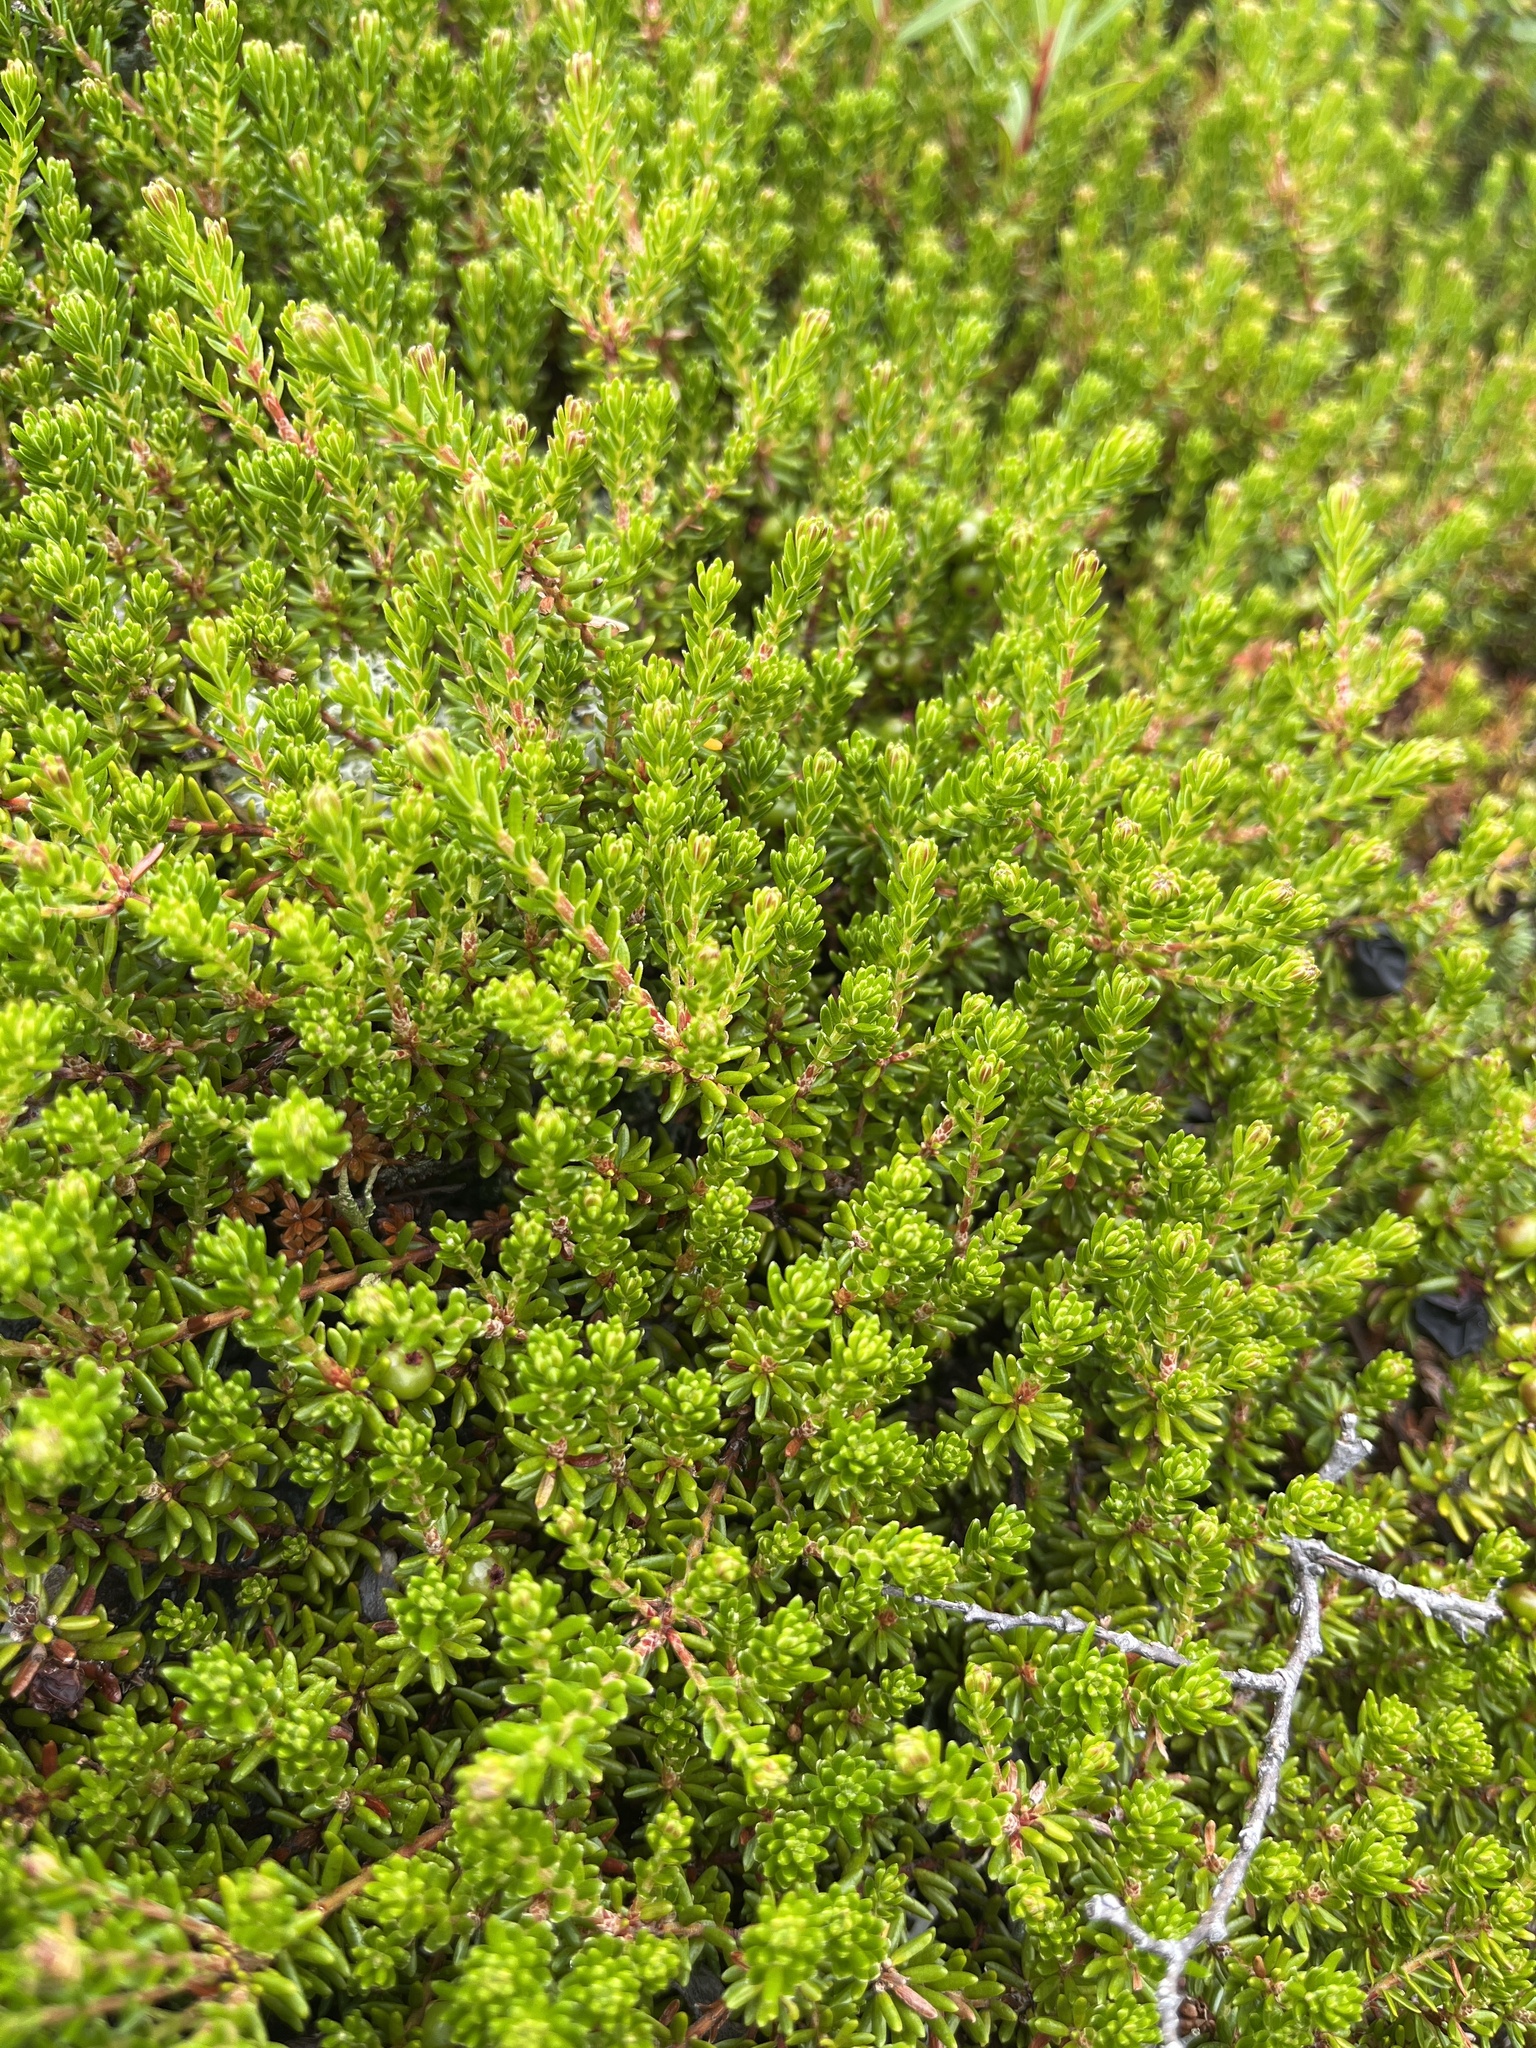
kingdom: Plantae
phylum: Tracheophyta
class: Magnoliopsida
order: Ericales
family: Ericaceae
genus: Empetrum
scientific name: Empetrum hermaphroditum
